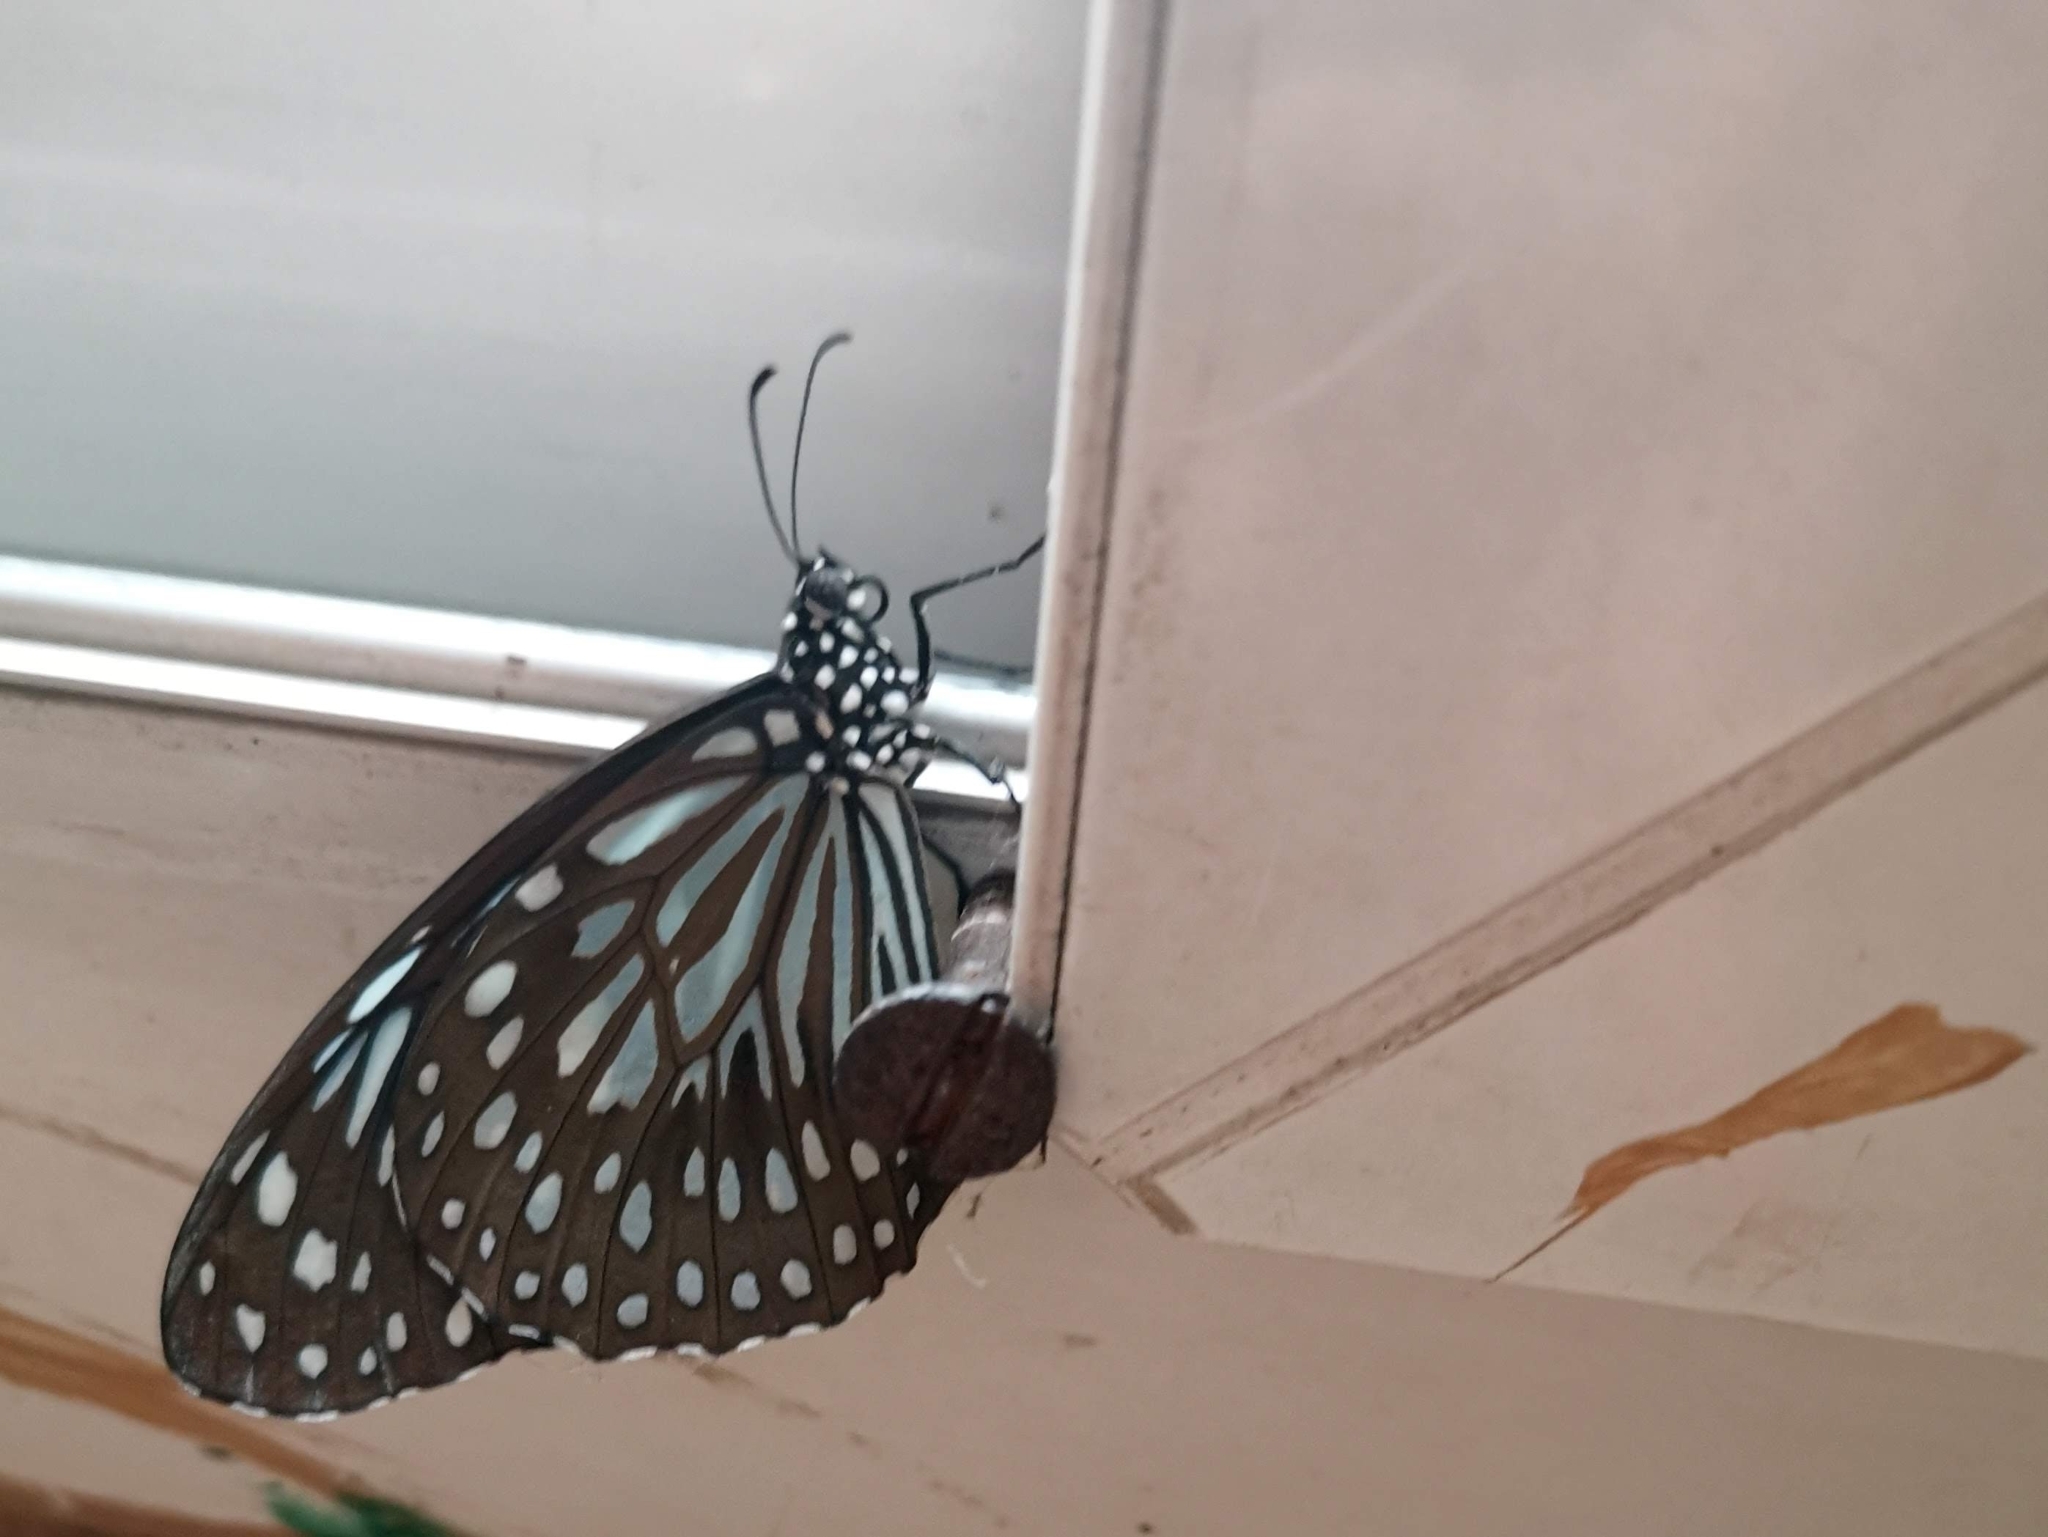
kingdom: Animalia
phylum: Arthropoda
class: Insecta
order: Lepidoptera
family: Nymphalidae
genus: Tirumala
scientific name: Tirumala septentrionis
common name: Dark blue tiger butterfly
